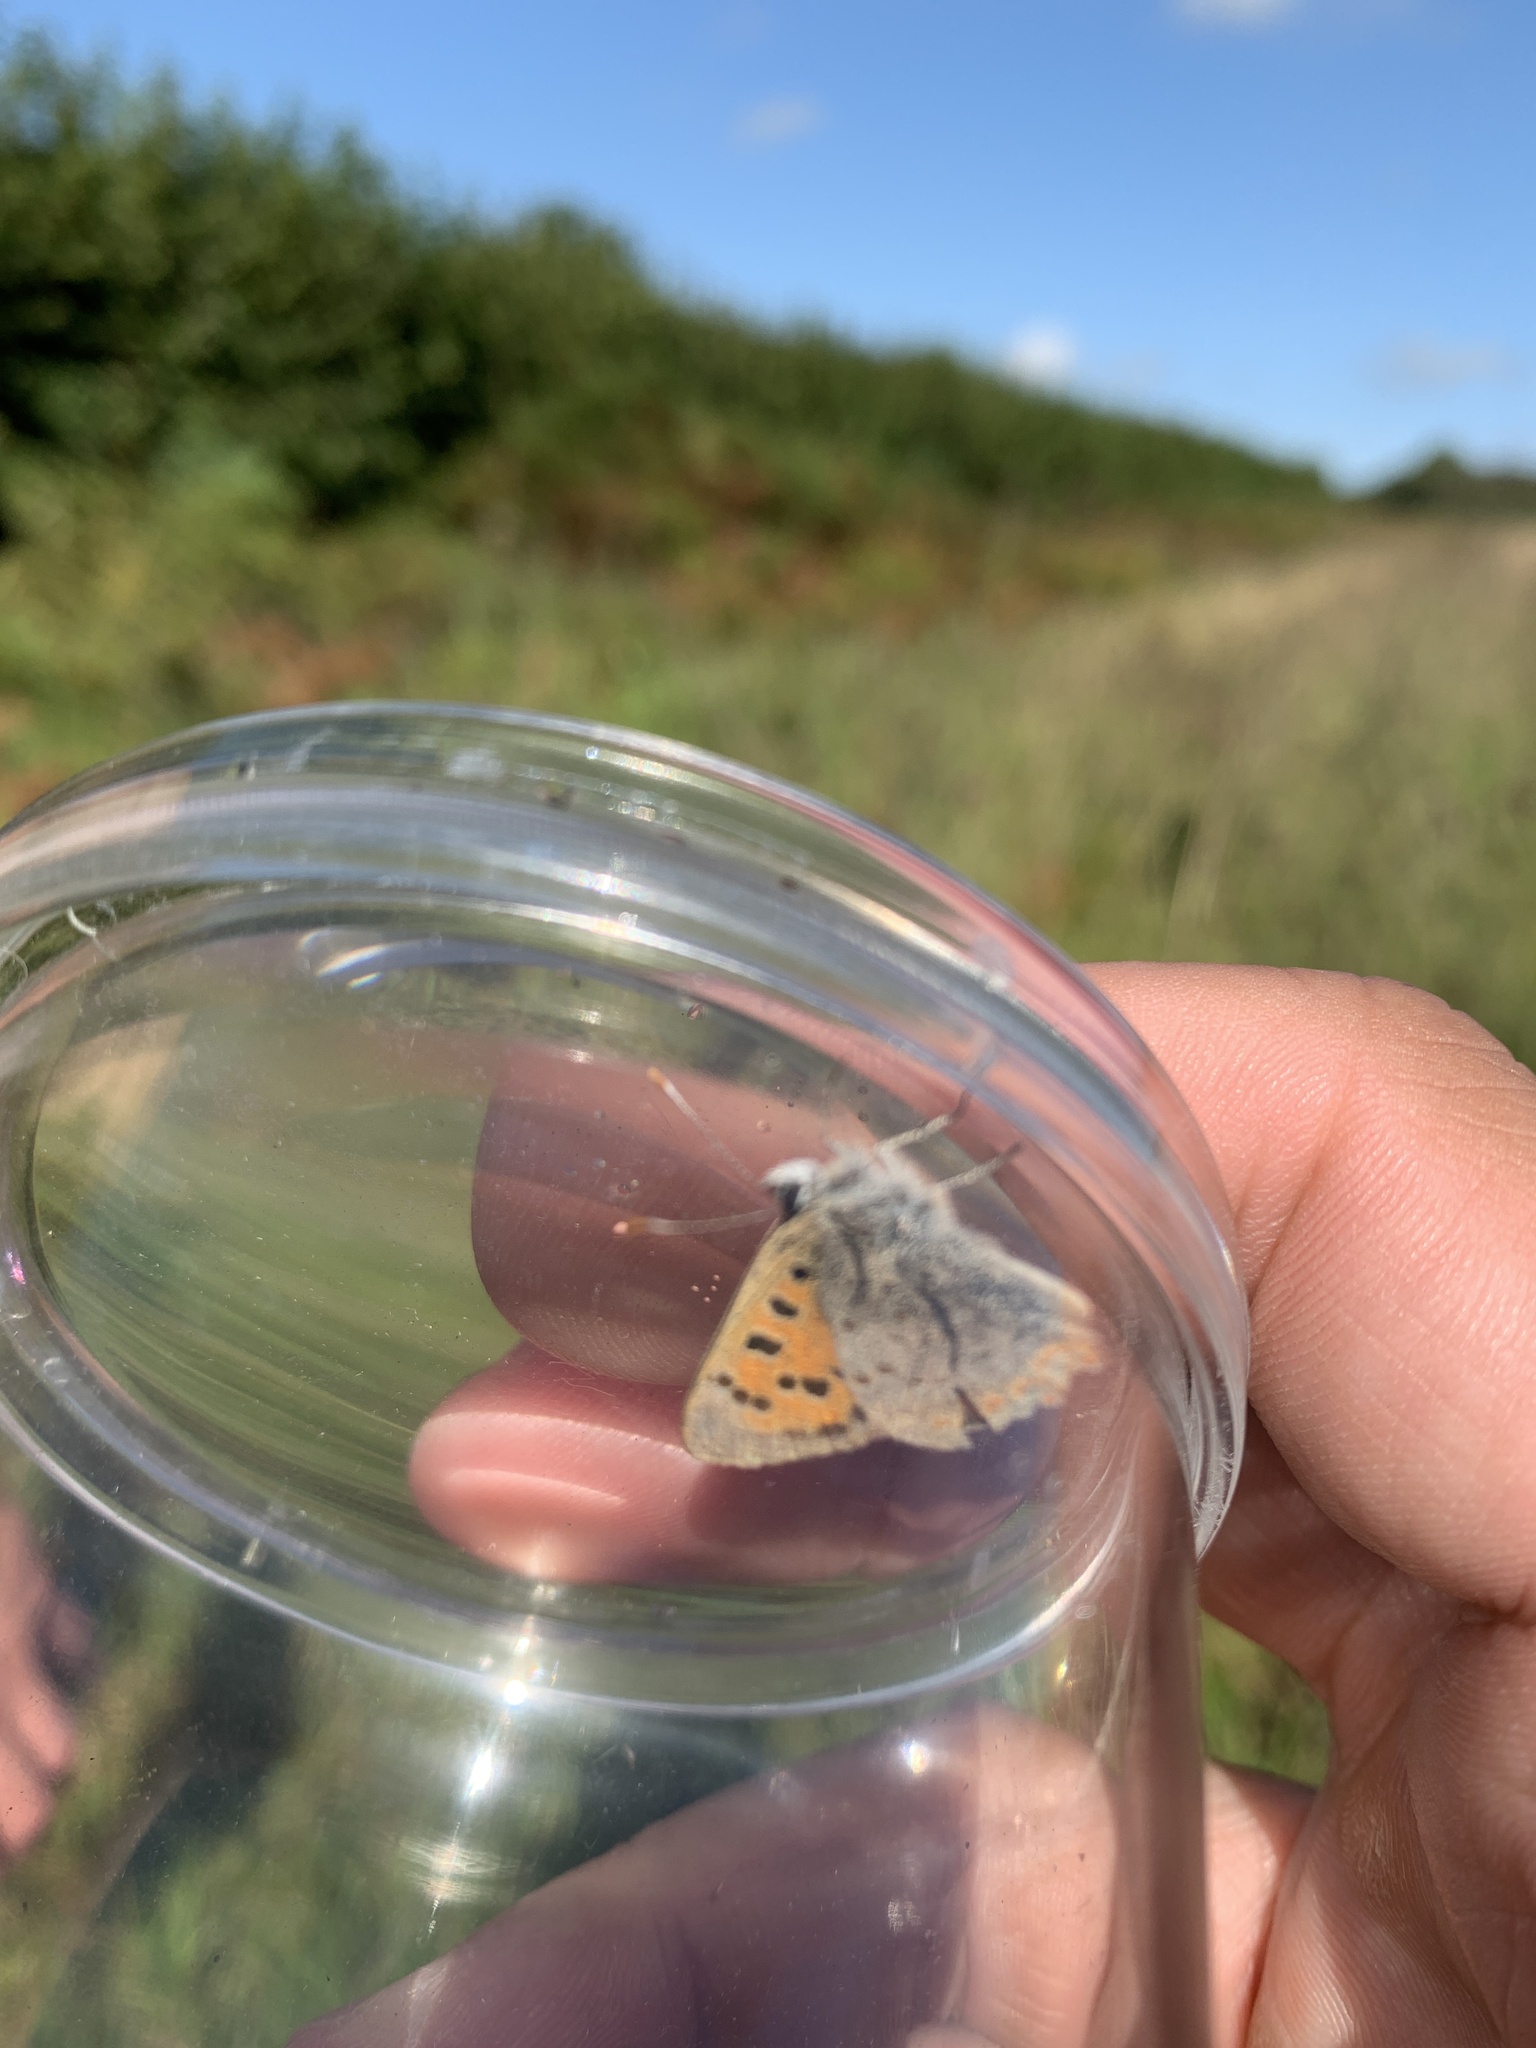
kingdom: Animalia
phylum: Arthropoda
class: Insecta
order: Lepidoptera
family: Lycaenidae
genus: Lycaena
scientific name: Lycaena phlaeas
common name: Small copper
